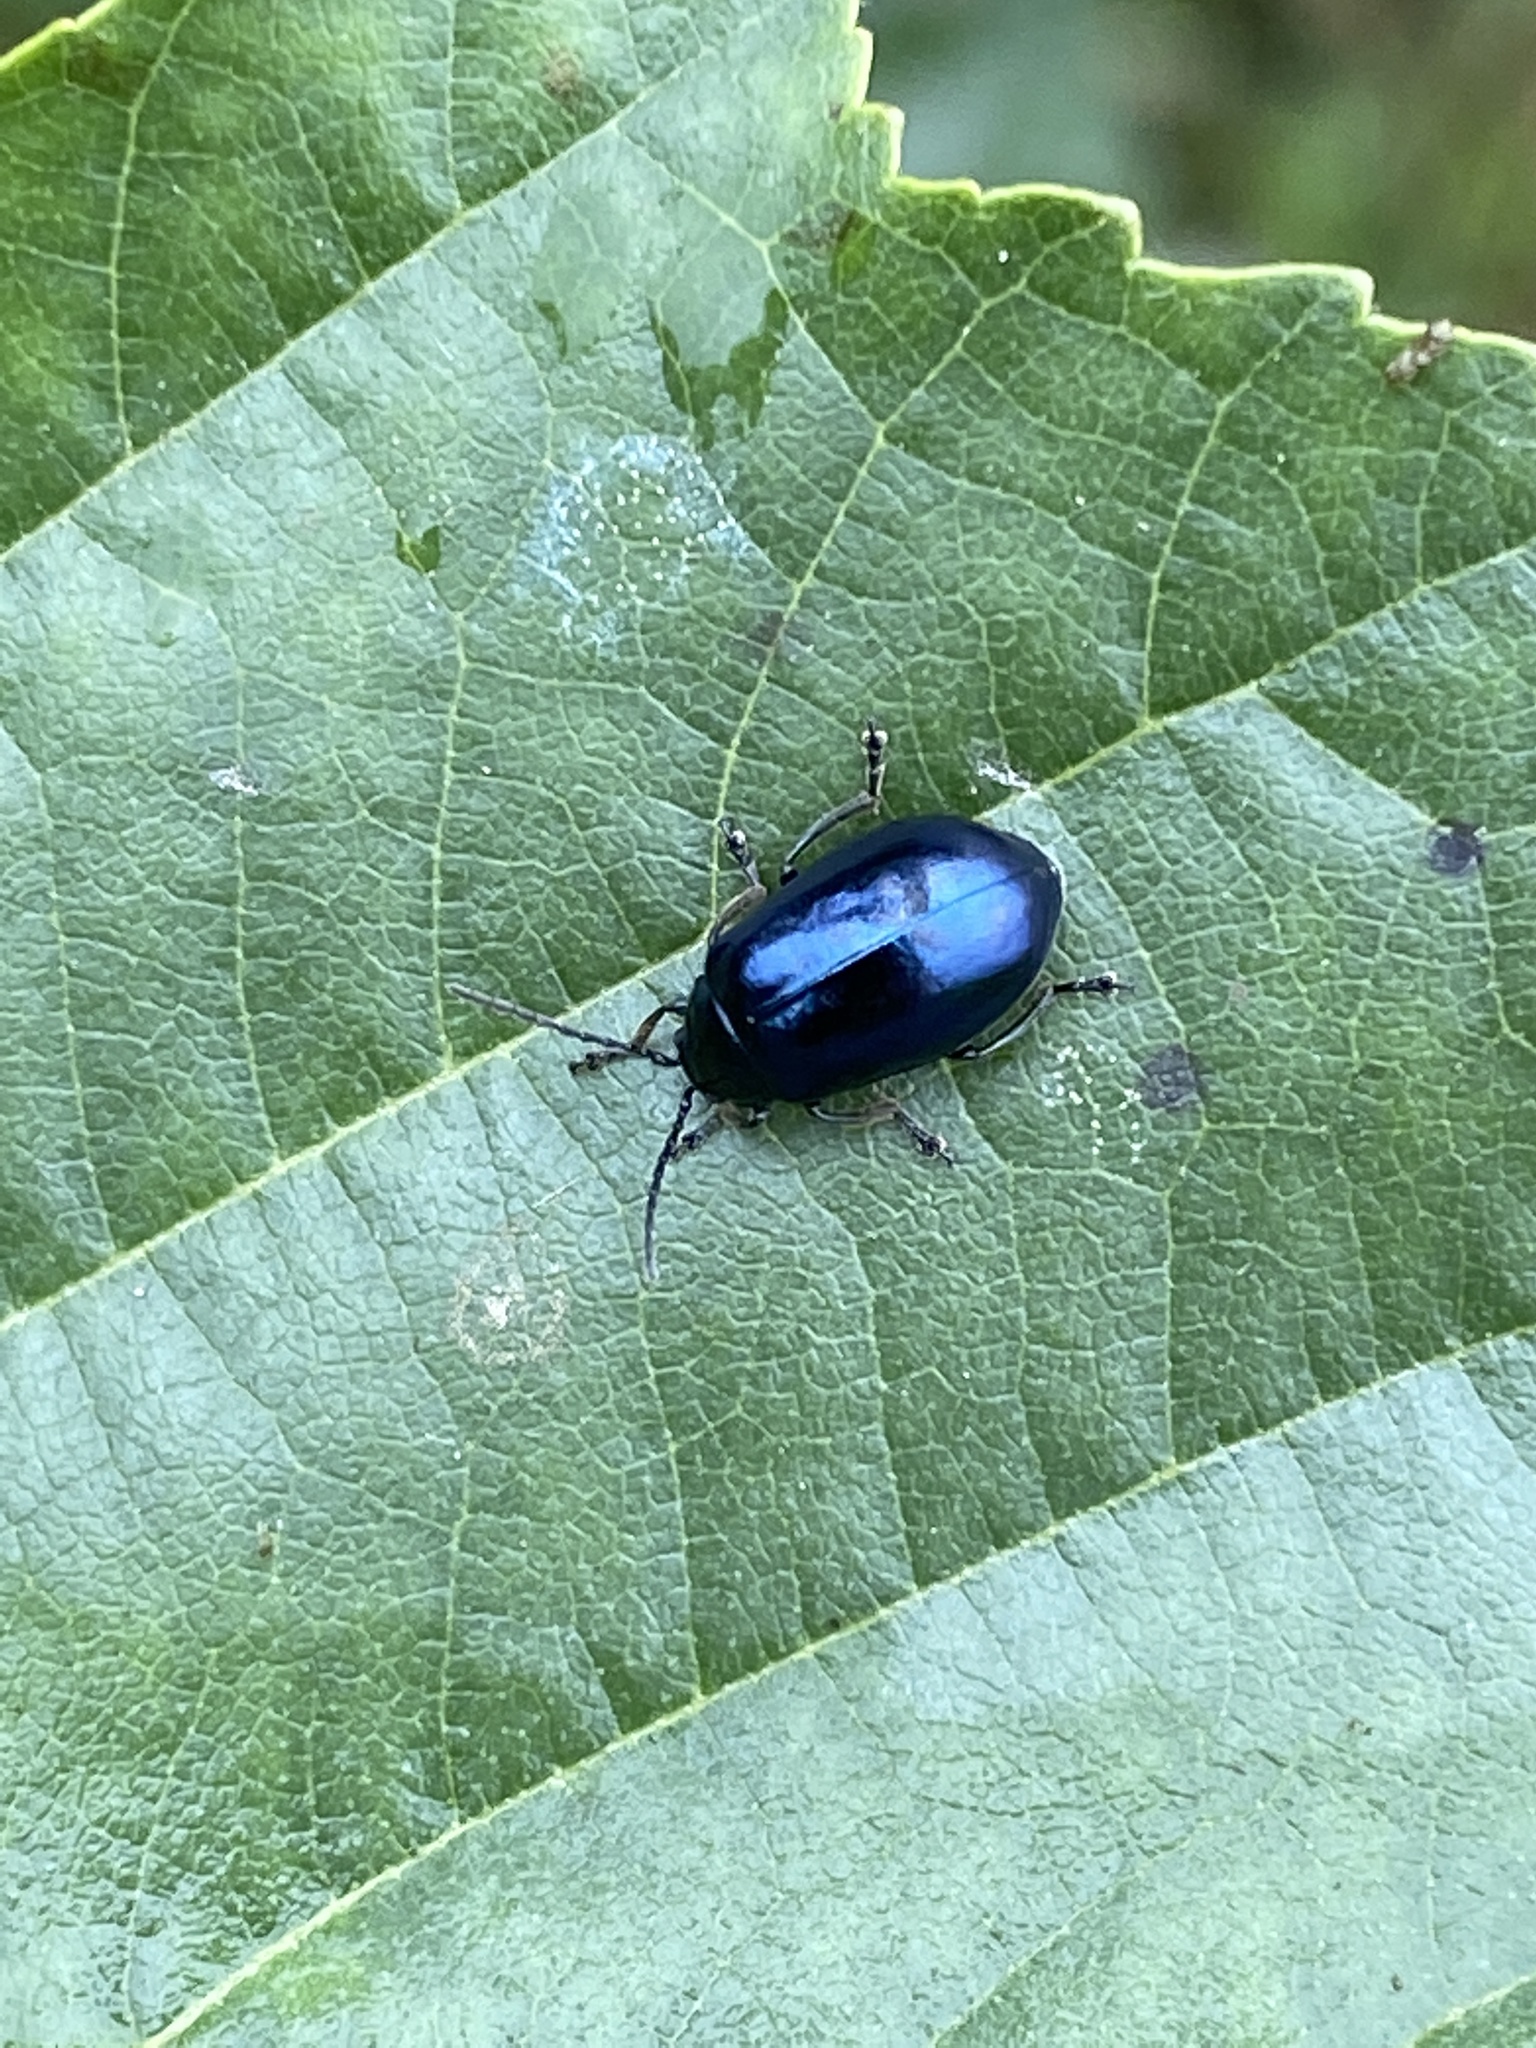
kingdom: Animalia
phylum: Arthropoda
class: Insecta
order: Coleoptera
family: Chrysomelidae
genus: Agelastica
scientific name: Agelastica alni
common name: Alder leaf beetle
